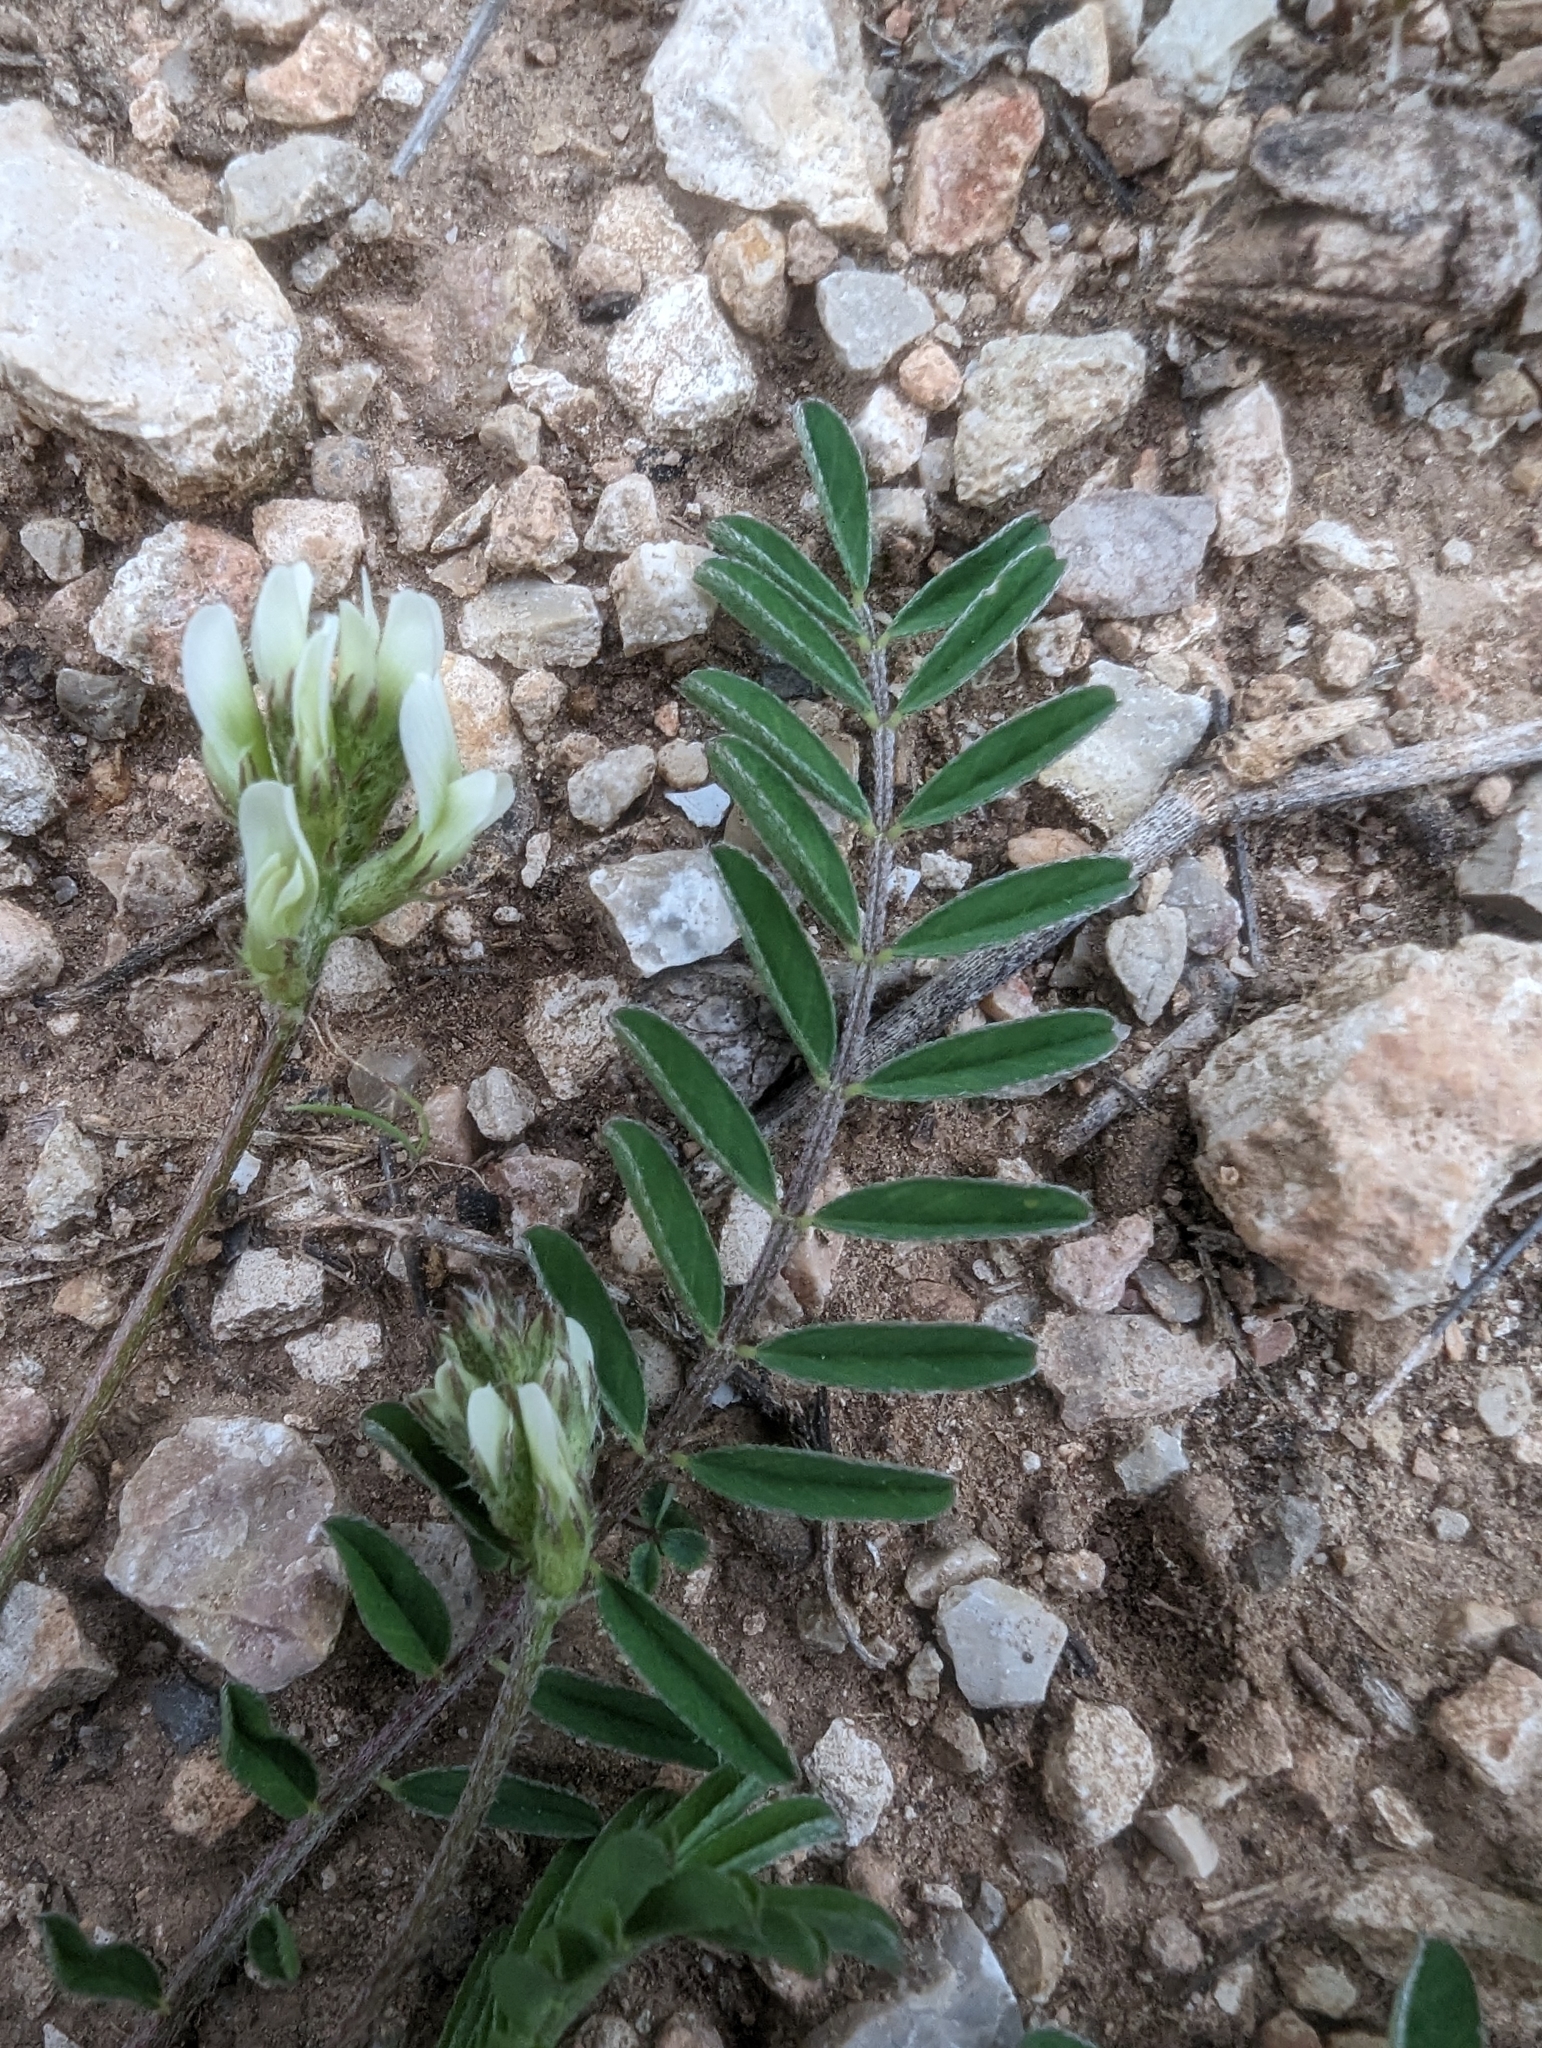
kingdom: Plantae
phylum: Tracheophyta
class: Magnoliopsida
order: Fabales
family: Fabaceae
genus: Astragalus
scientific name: Astragalus hamosus
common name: European milkvetch
